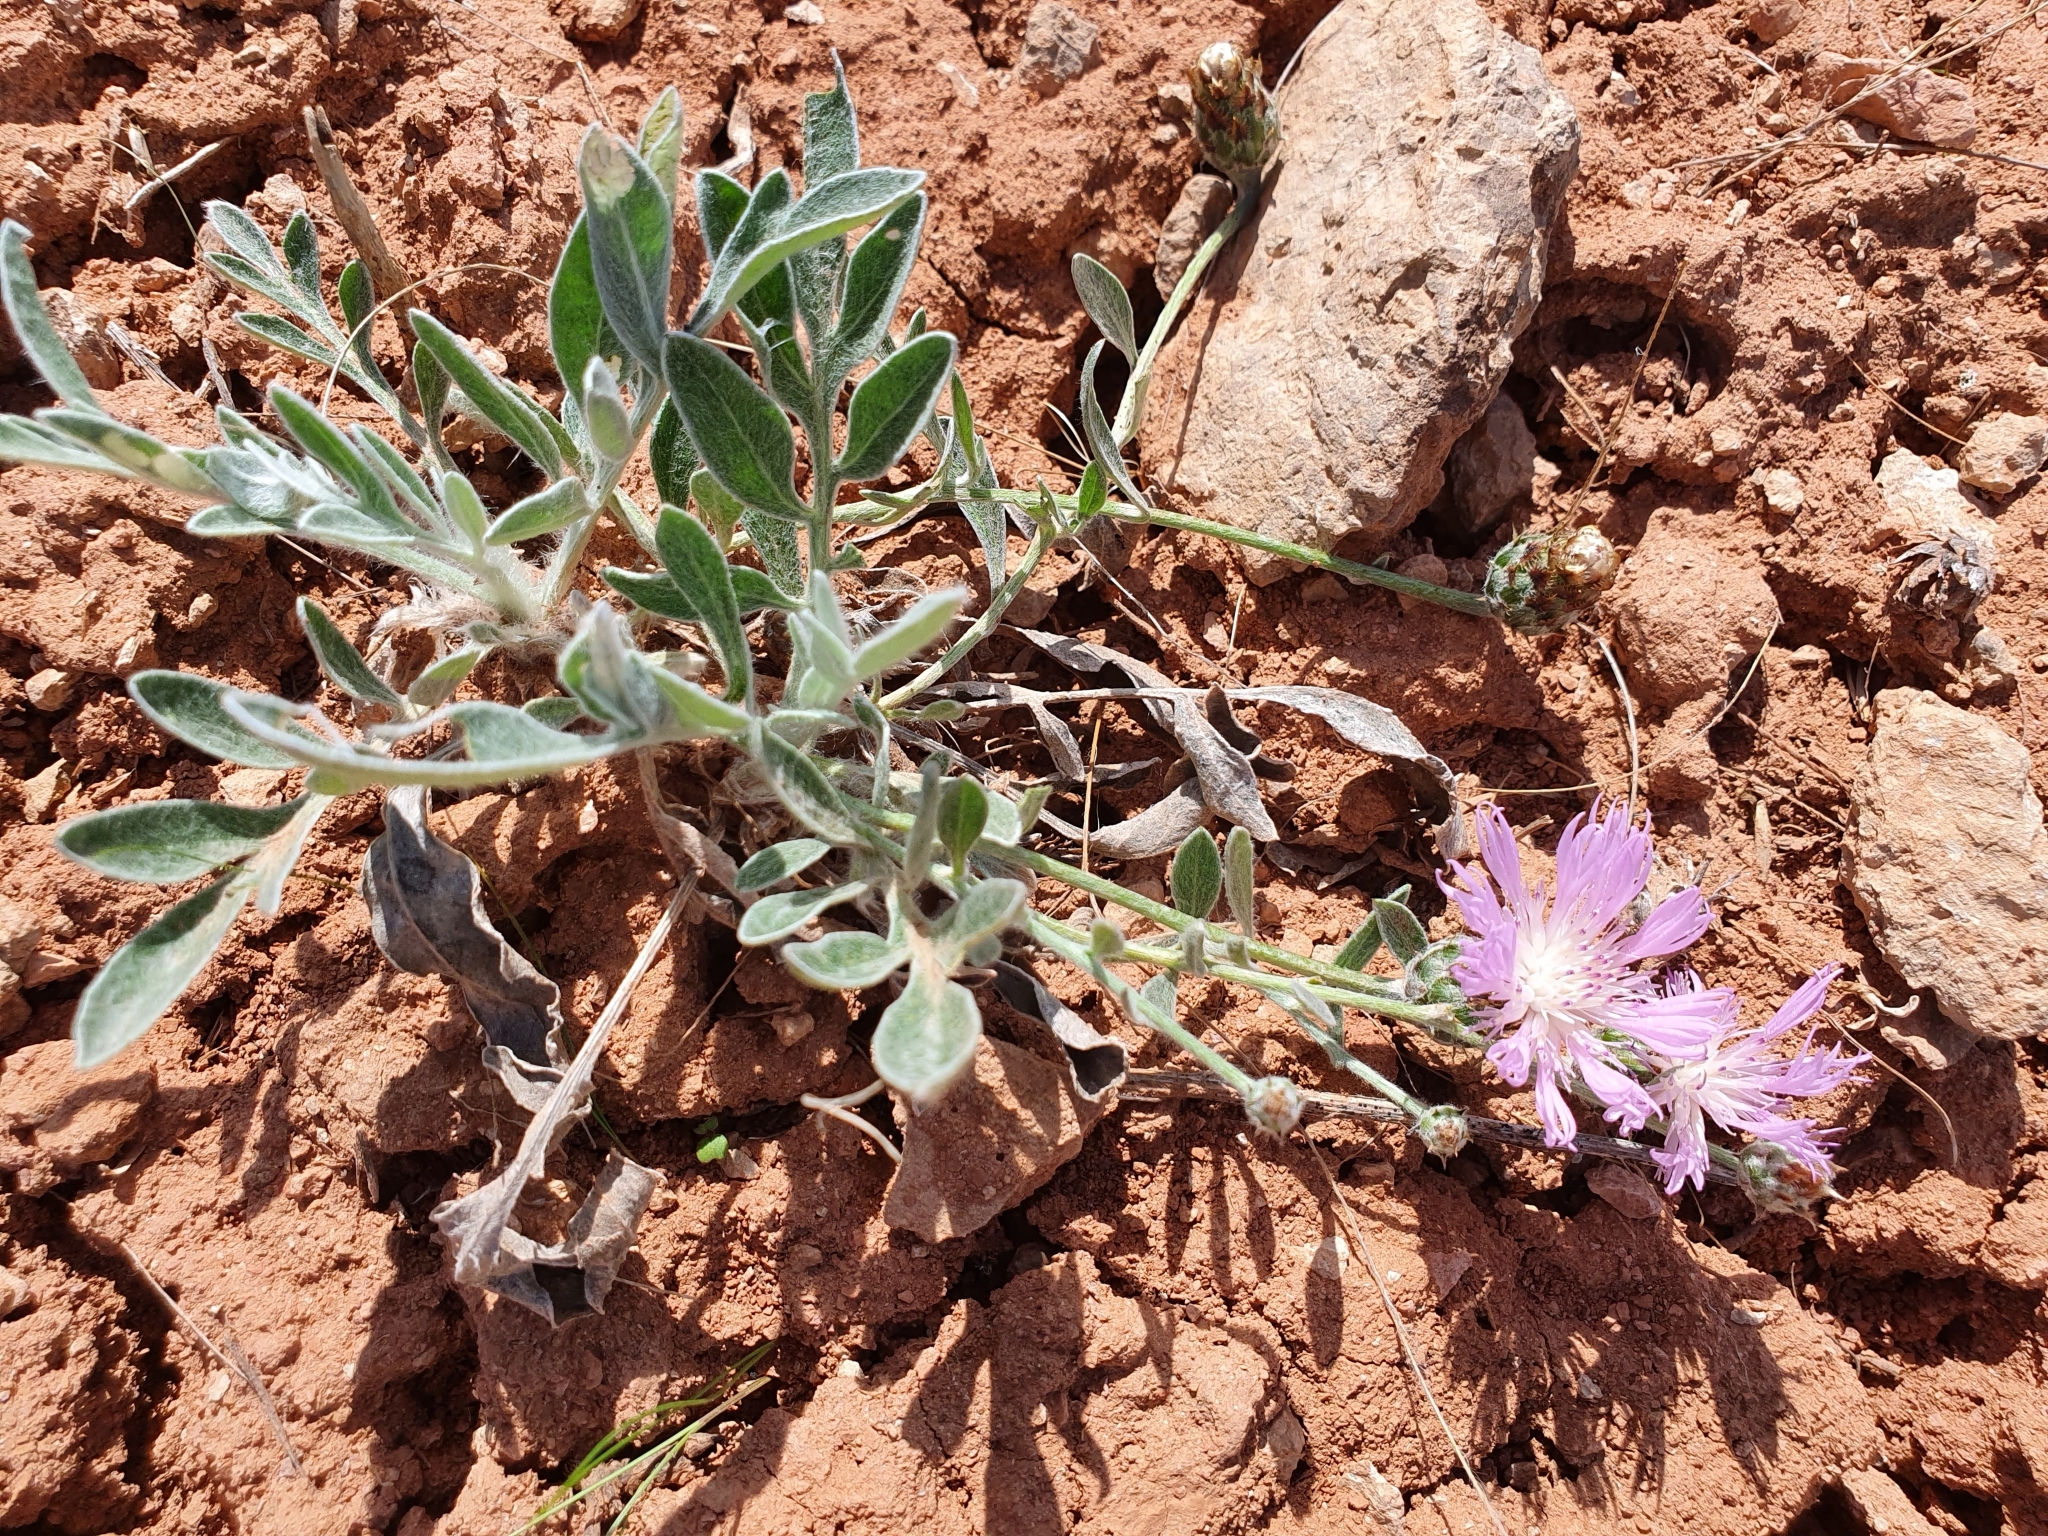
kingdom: Plantae
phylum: Tracheophyta
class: Magnoliopsida
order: Asterales
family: Asteraceae
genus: Psephellus
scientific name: Psephellus marschallianus
